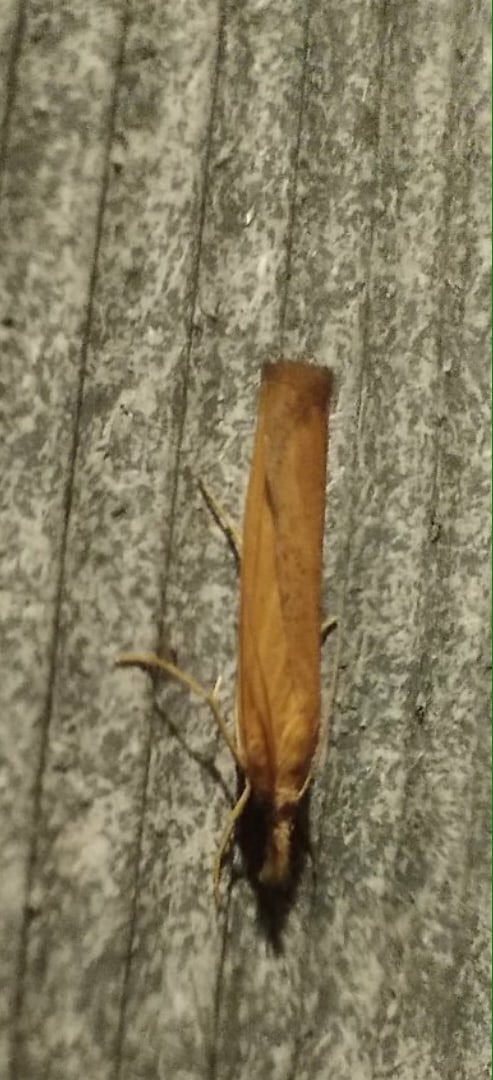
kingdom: Animalia
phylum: Arthropoda
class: Insecta
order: Lepidoptera
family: Crambidae
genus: Pediasia
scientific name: Pediasia luteella
